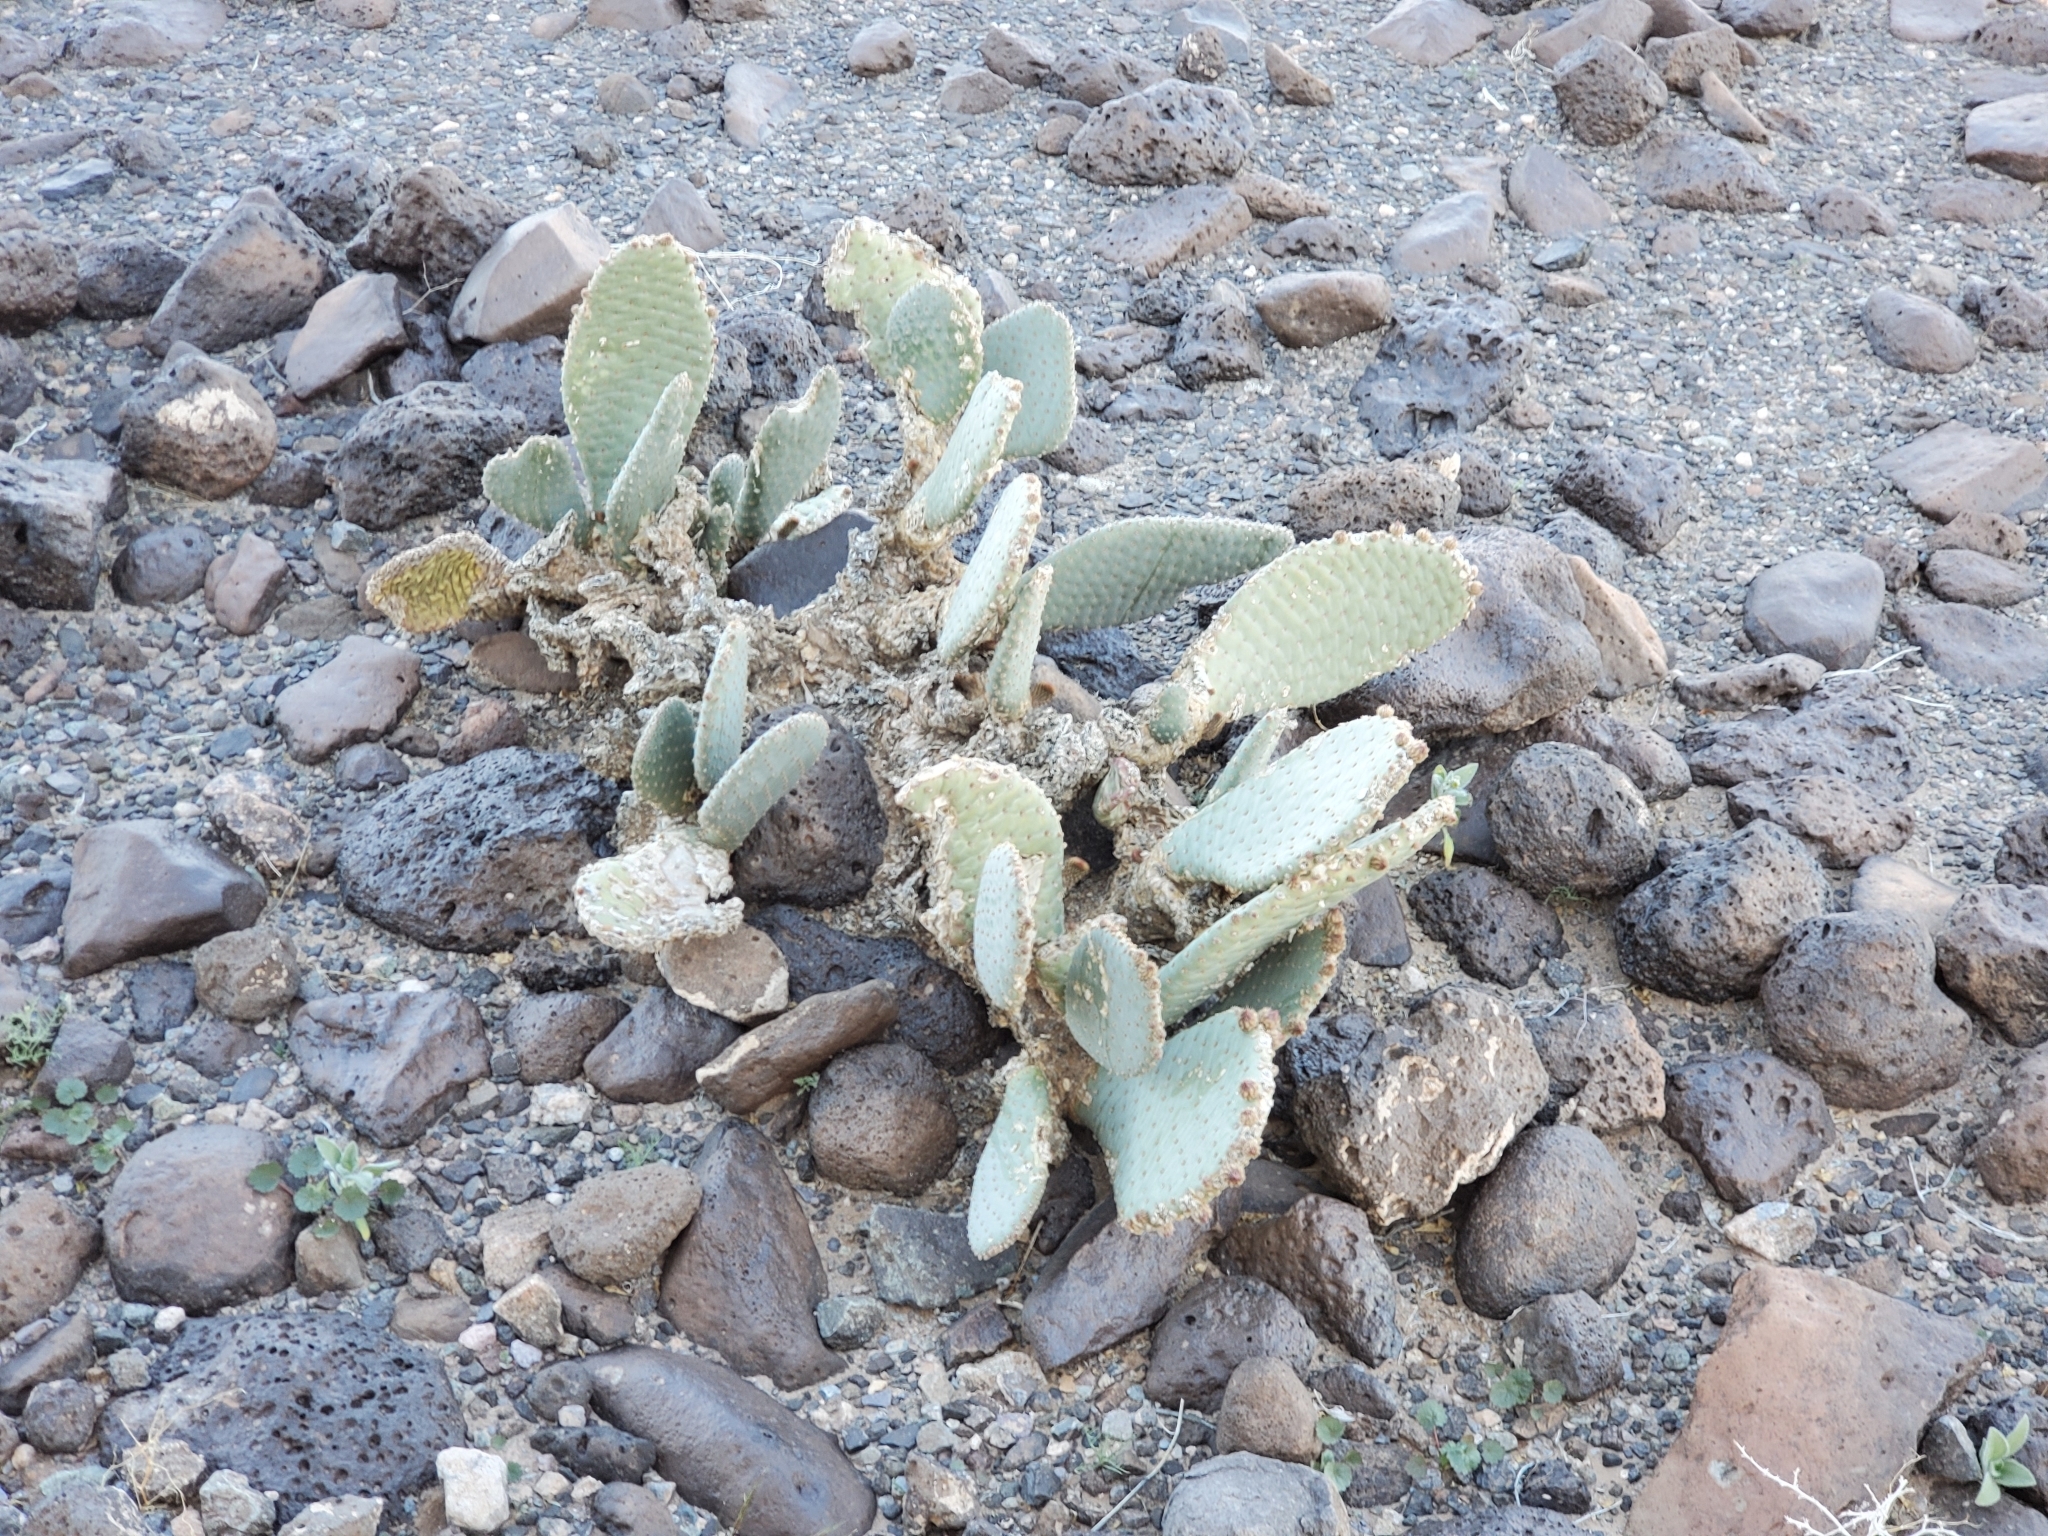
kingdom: Plantae
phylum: Tracheophyta
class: Magnoliopsida
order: Caryophyllales
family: Cactaceae
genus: Opuntia
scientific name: Opuntia basilaris
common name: Beavertail prickly-pear
